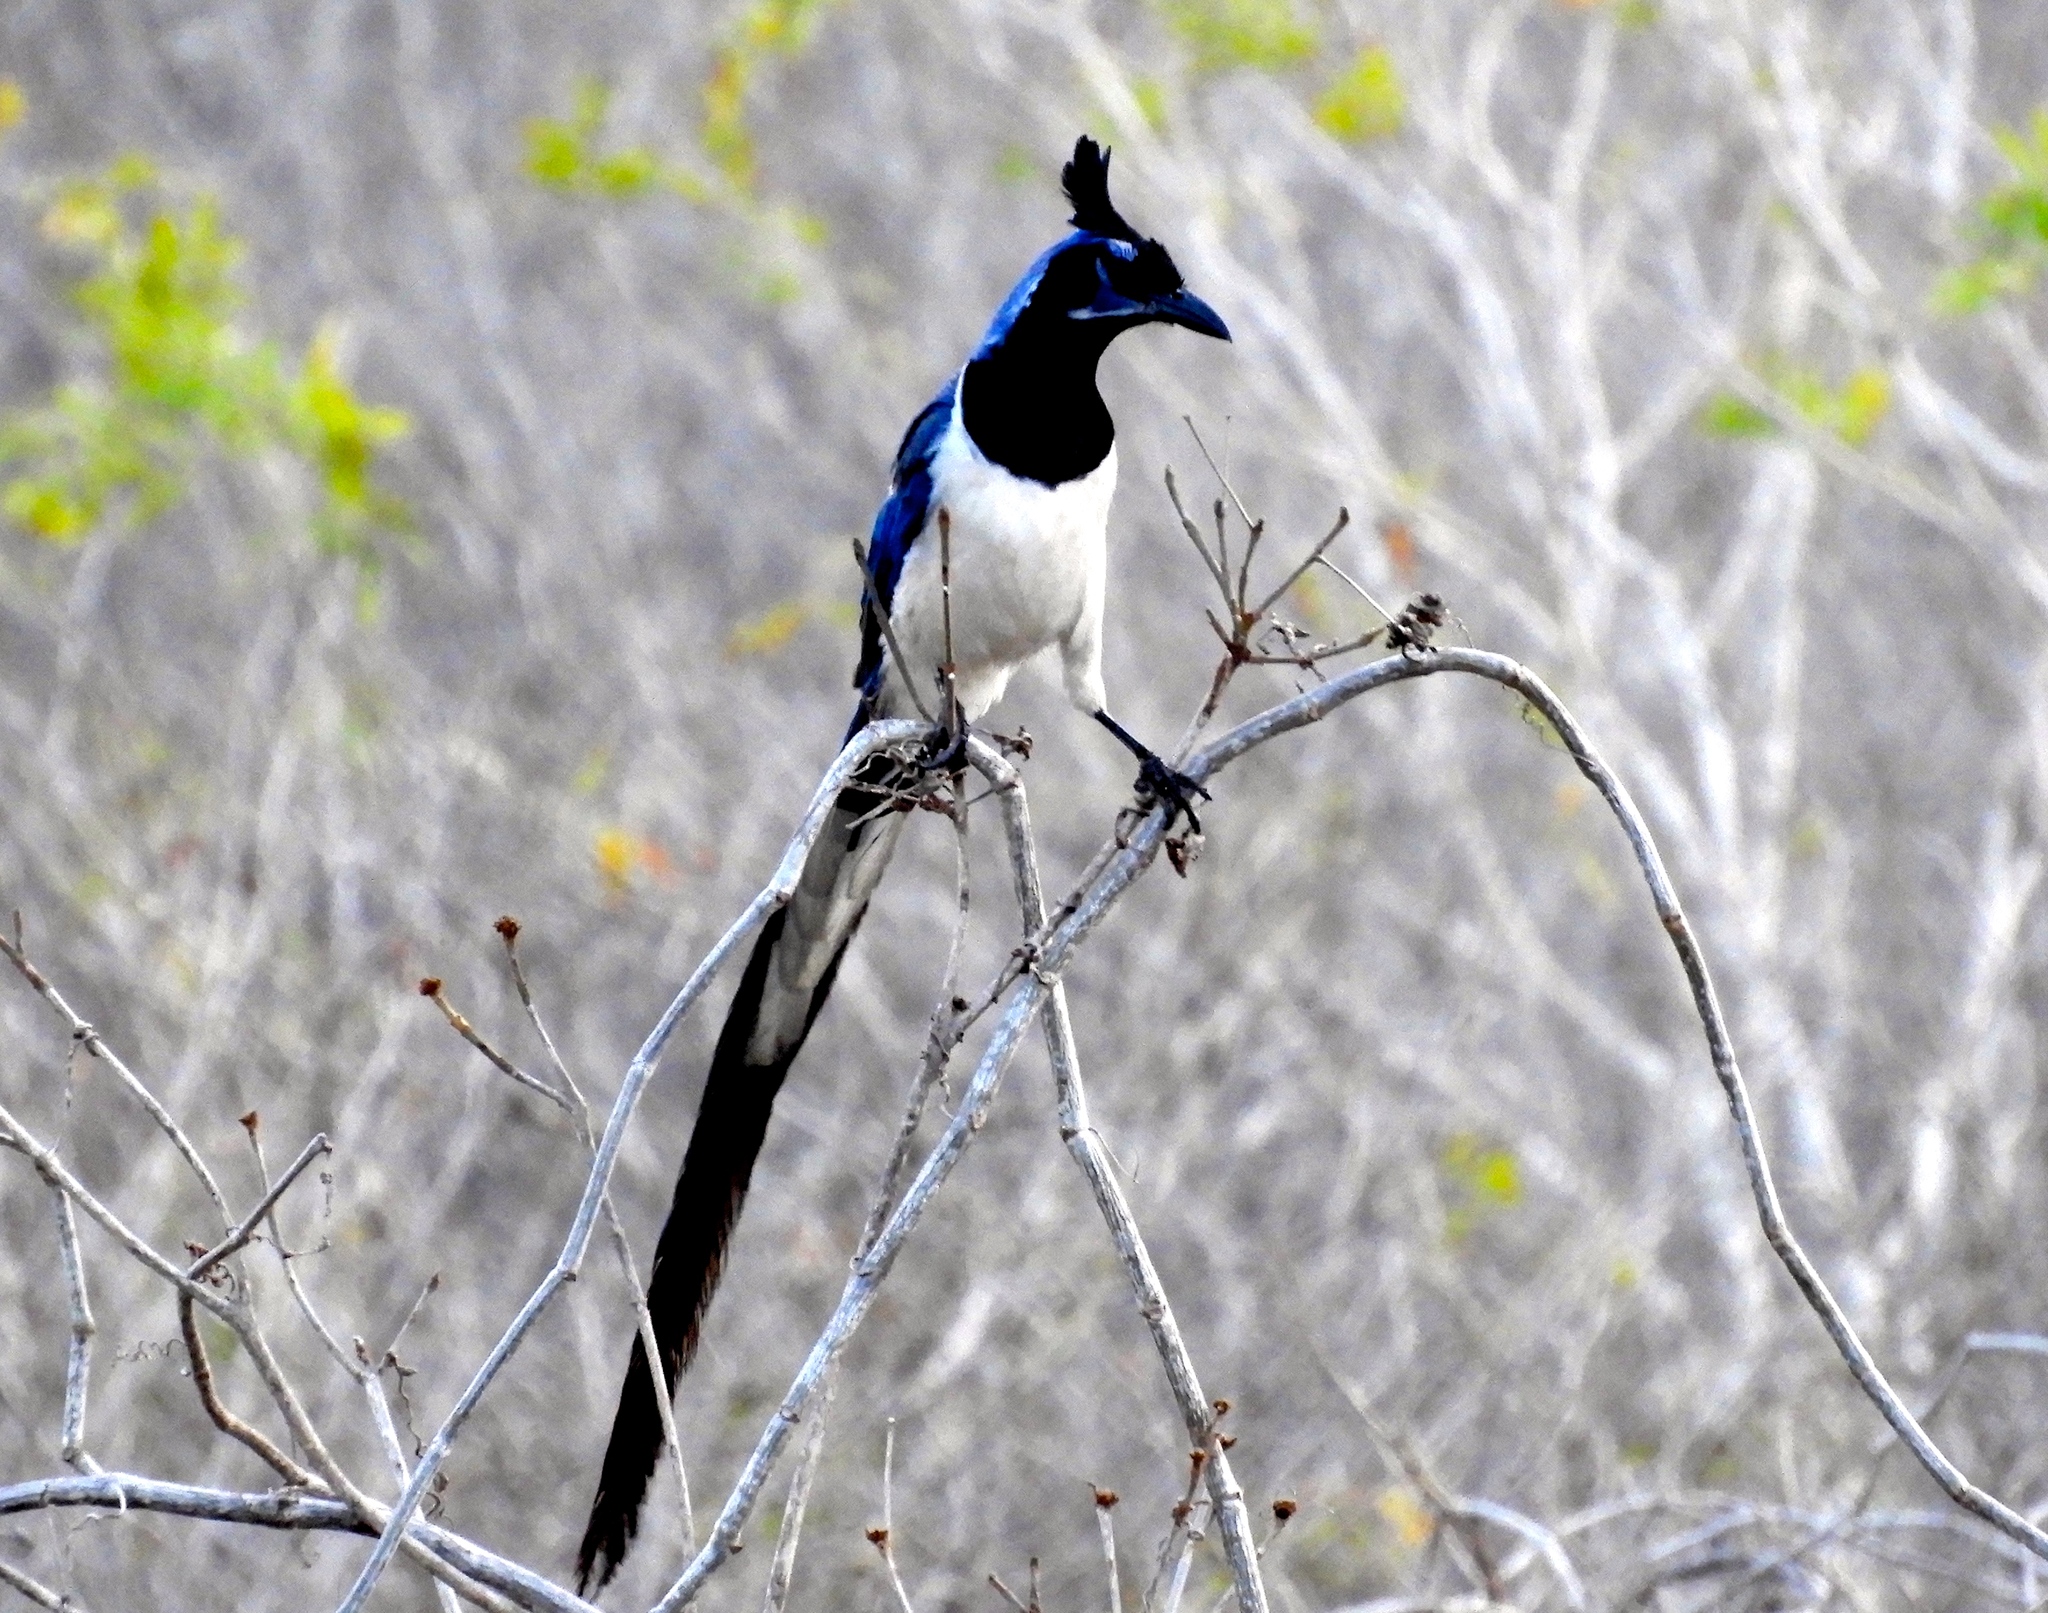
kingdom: Animalia
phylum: Chordata
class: Aves
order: Passeriformes
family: Corvidae
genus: Calocitta
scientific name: Calocitta colliei
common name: Black-throated magpie-jay
